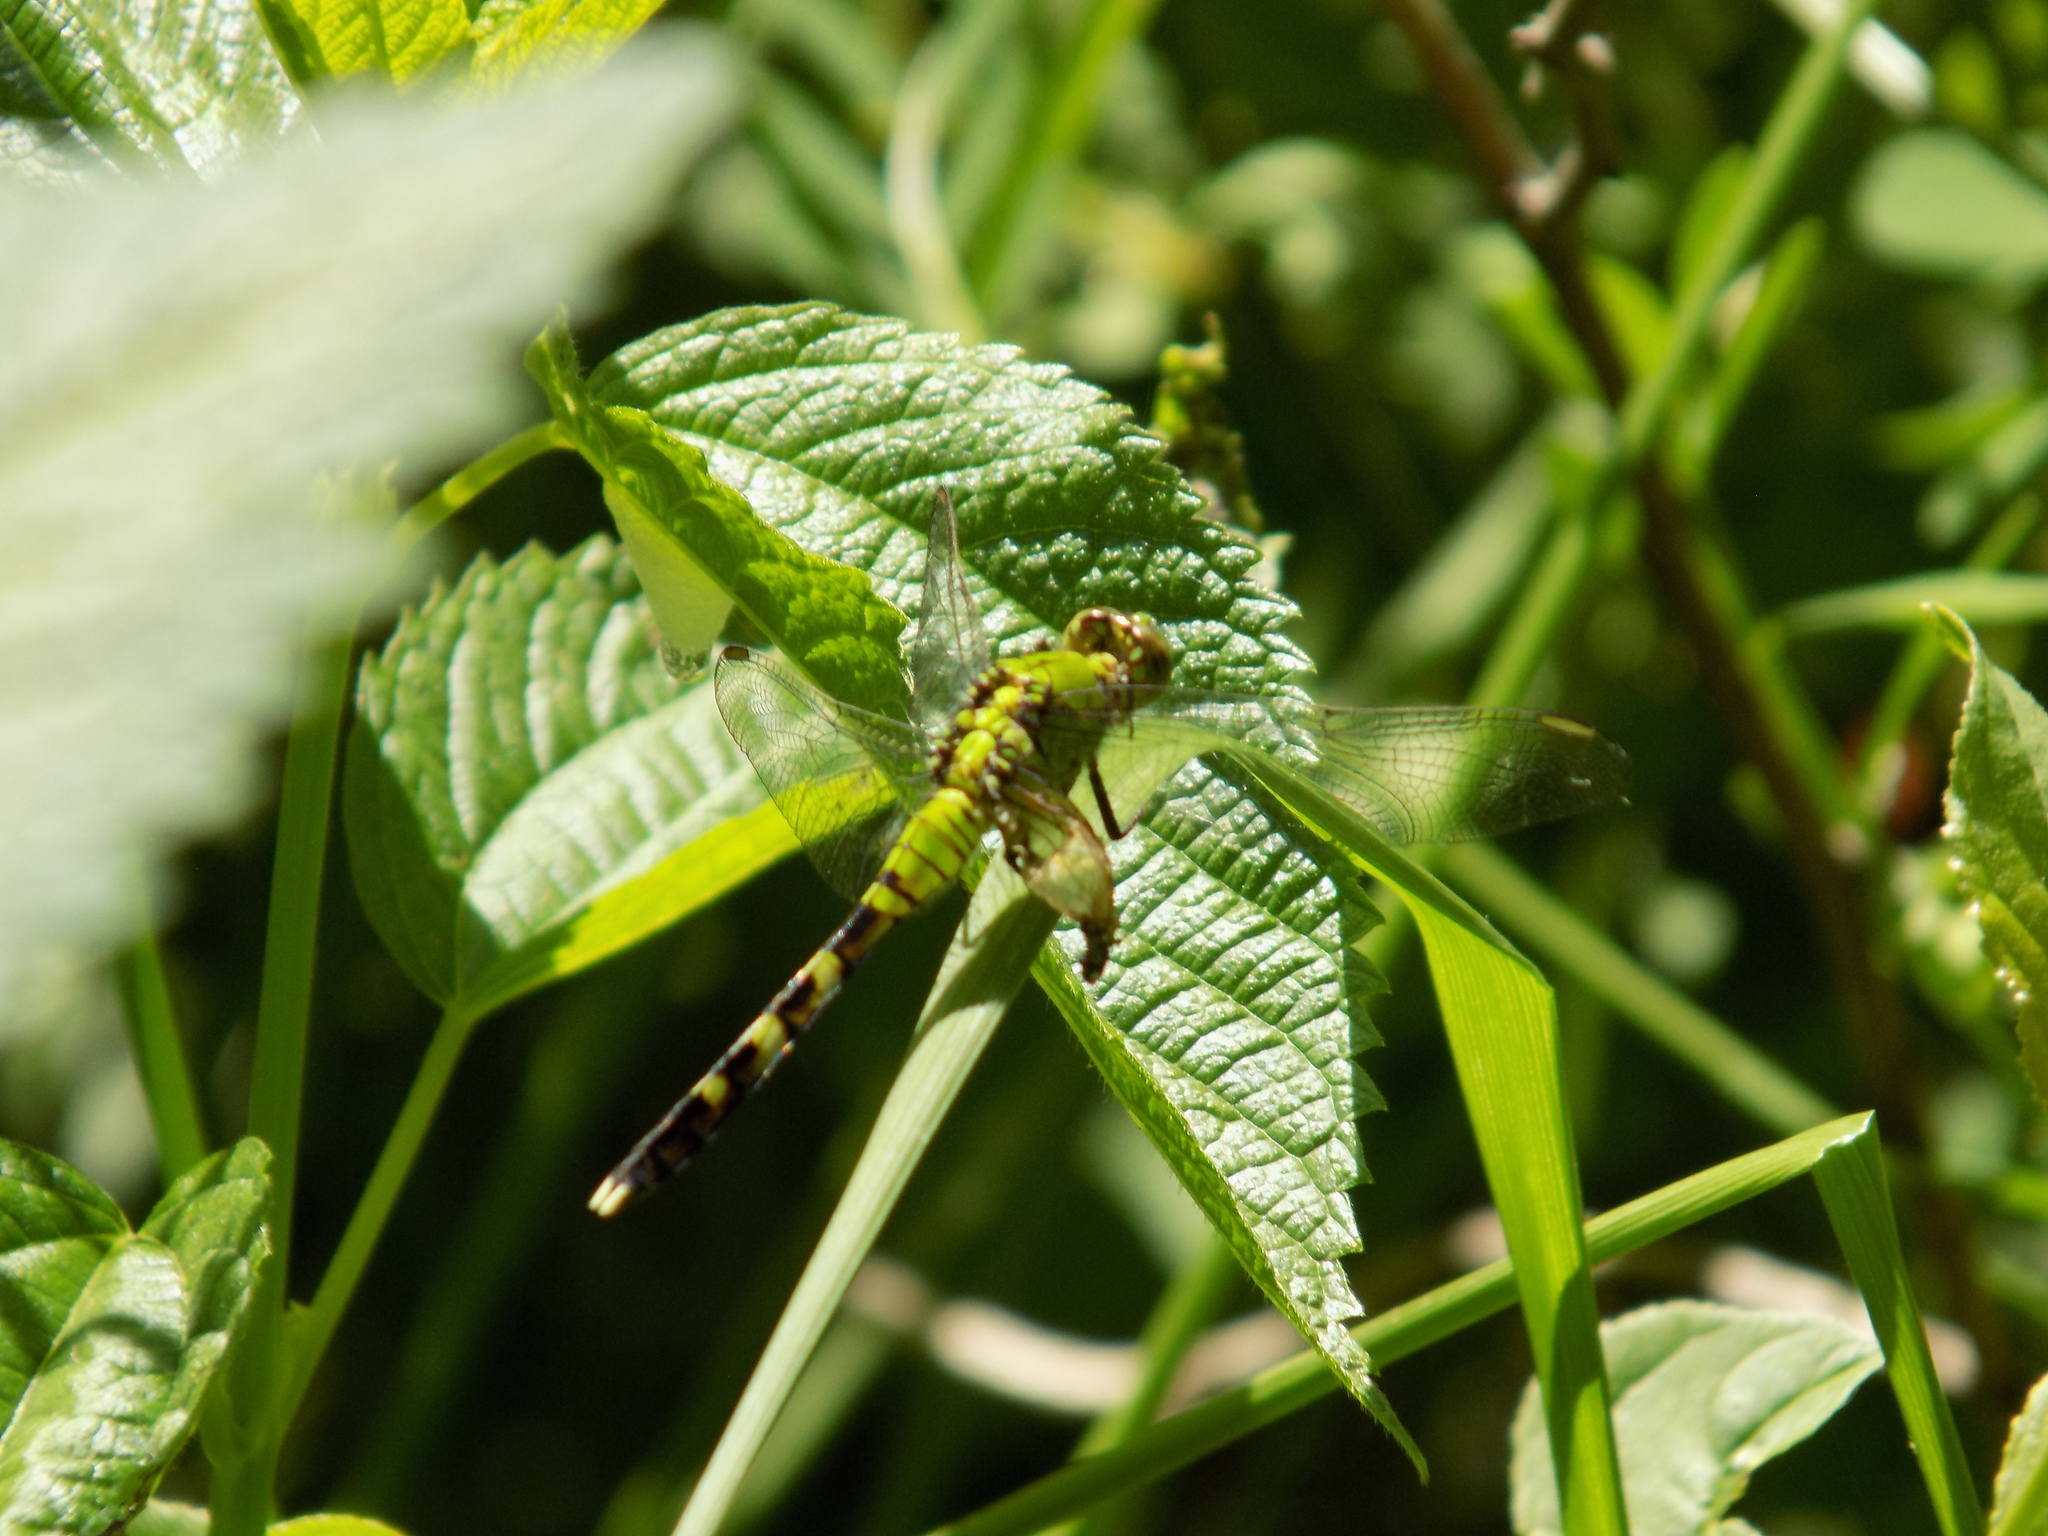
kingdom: Animalia
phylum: Arthropoda
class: Insecta
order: Odonata
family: Libellulidae
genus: Erythemis
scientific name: Erythemis simplicicollis
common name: Eastern pondhawk
